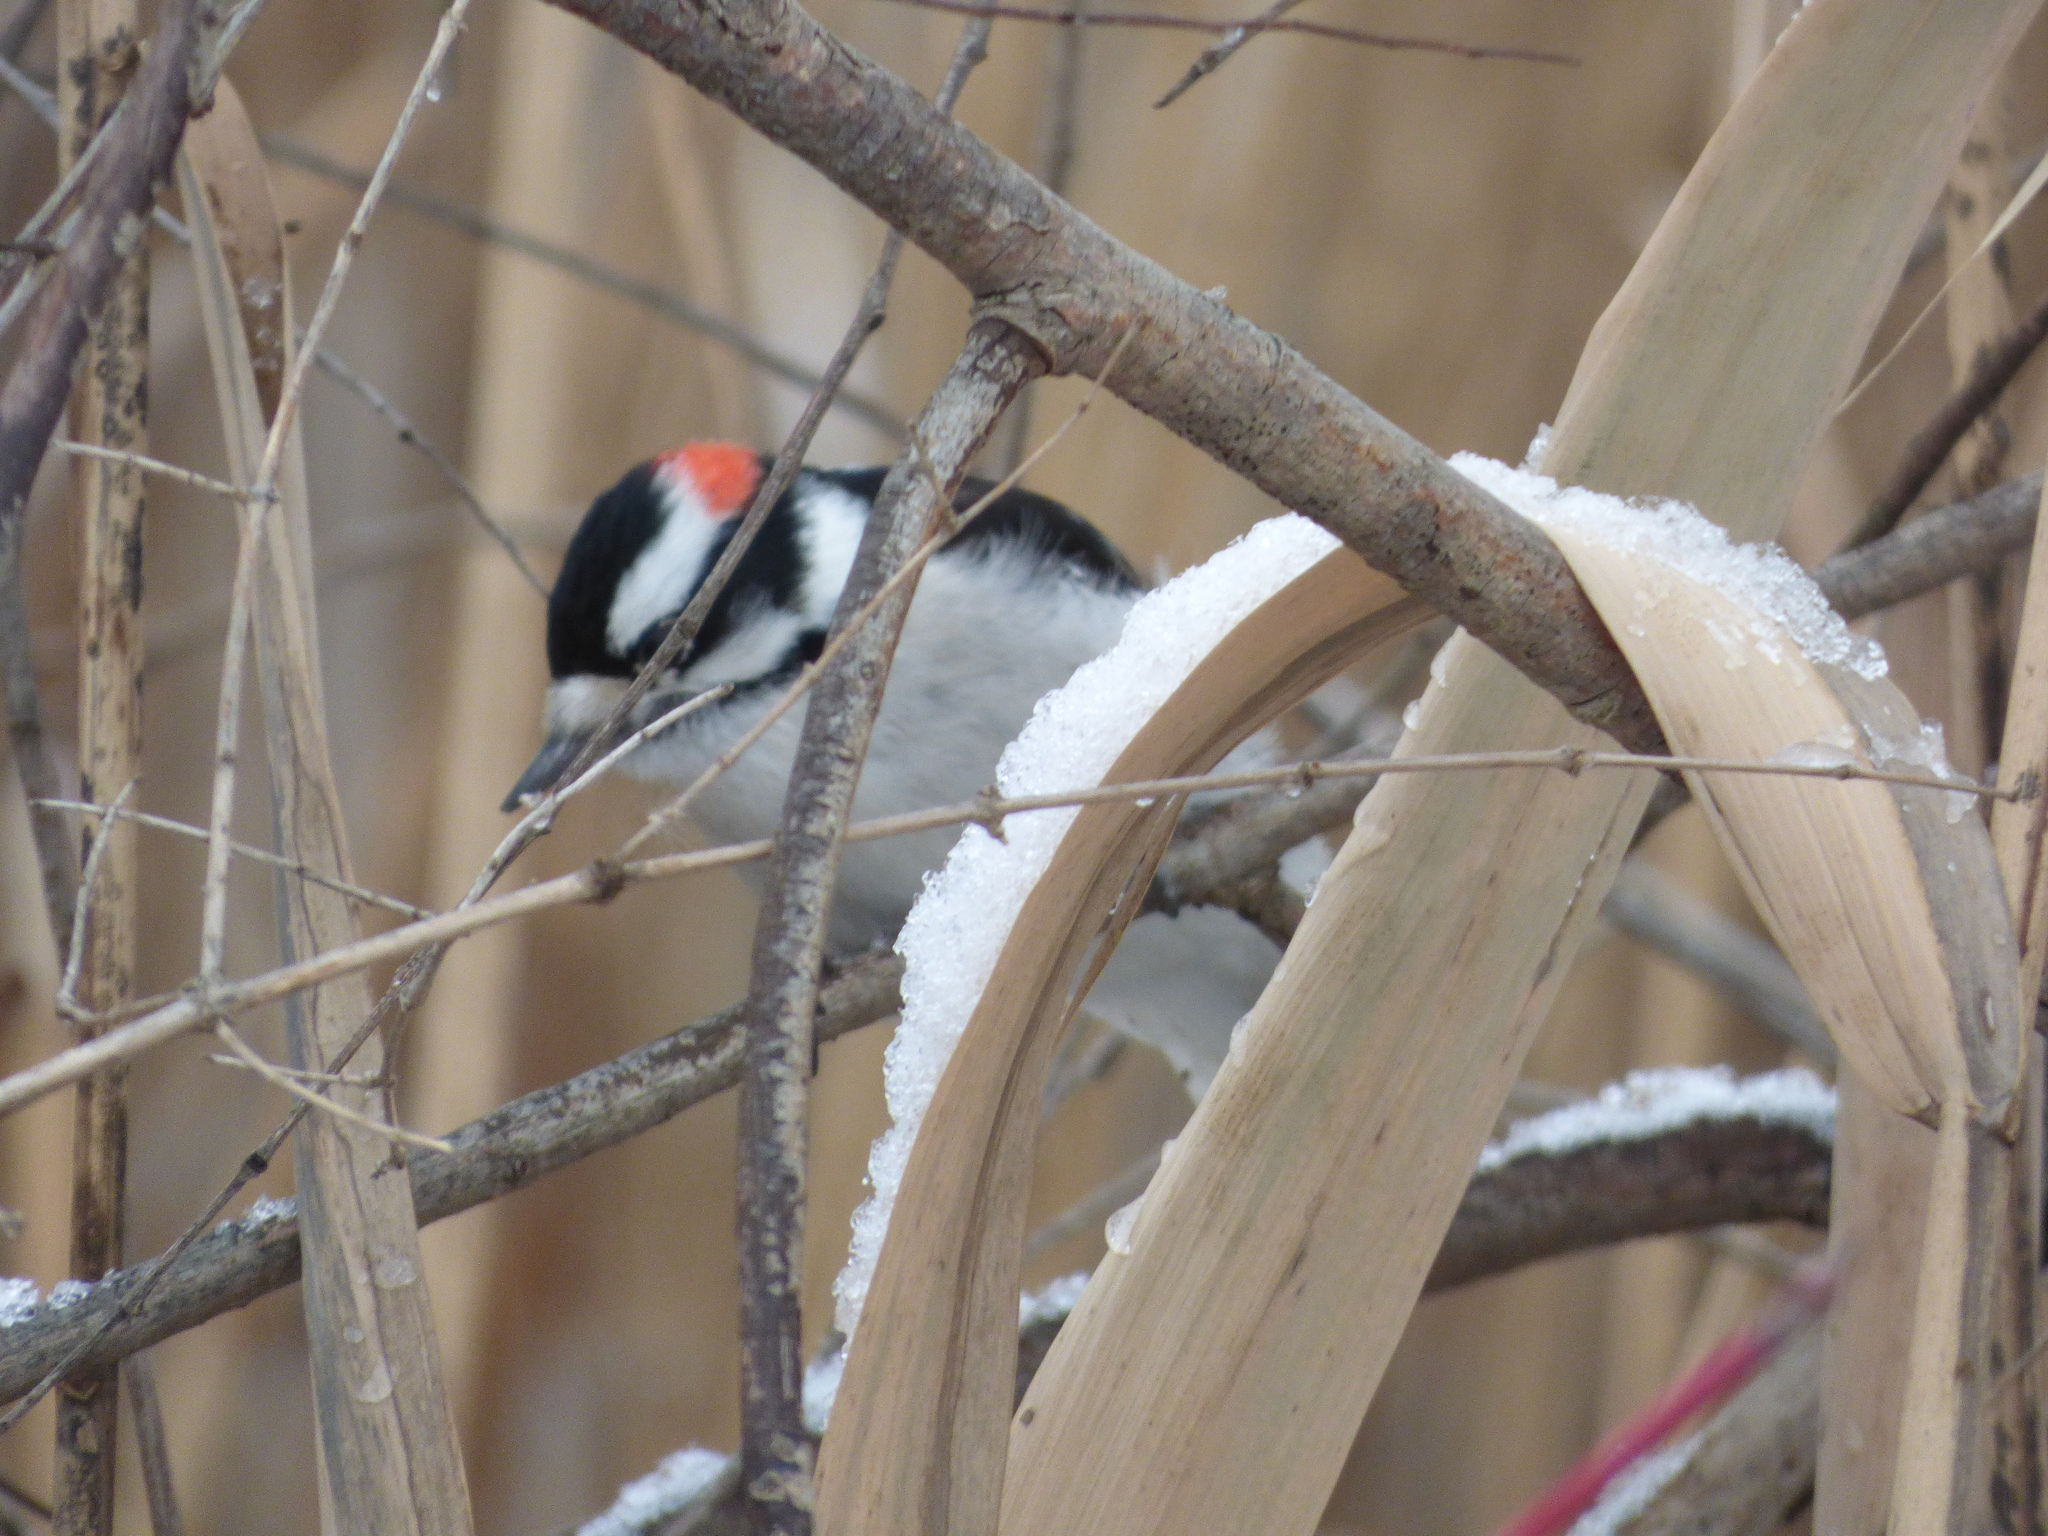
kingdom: Animalia
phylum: Chordata
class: Aves
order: Piciformes
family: Picidae
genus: Dryobates
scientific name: Dryobates pubescens
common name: Downy woodpecker
